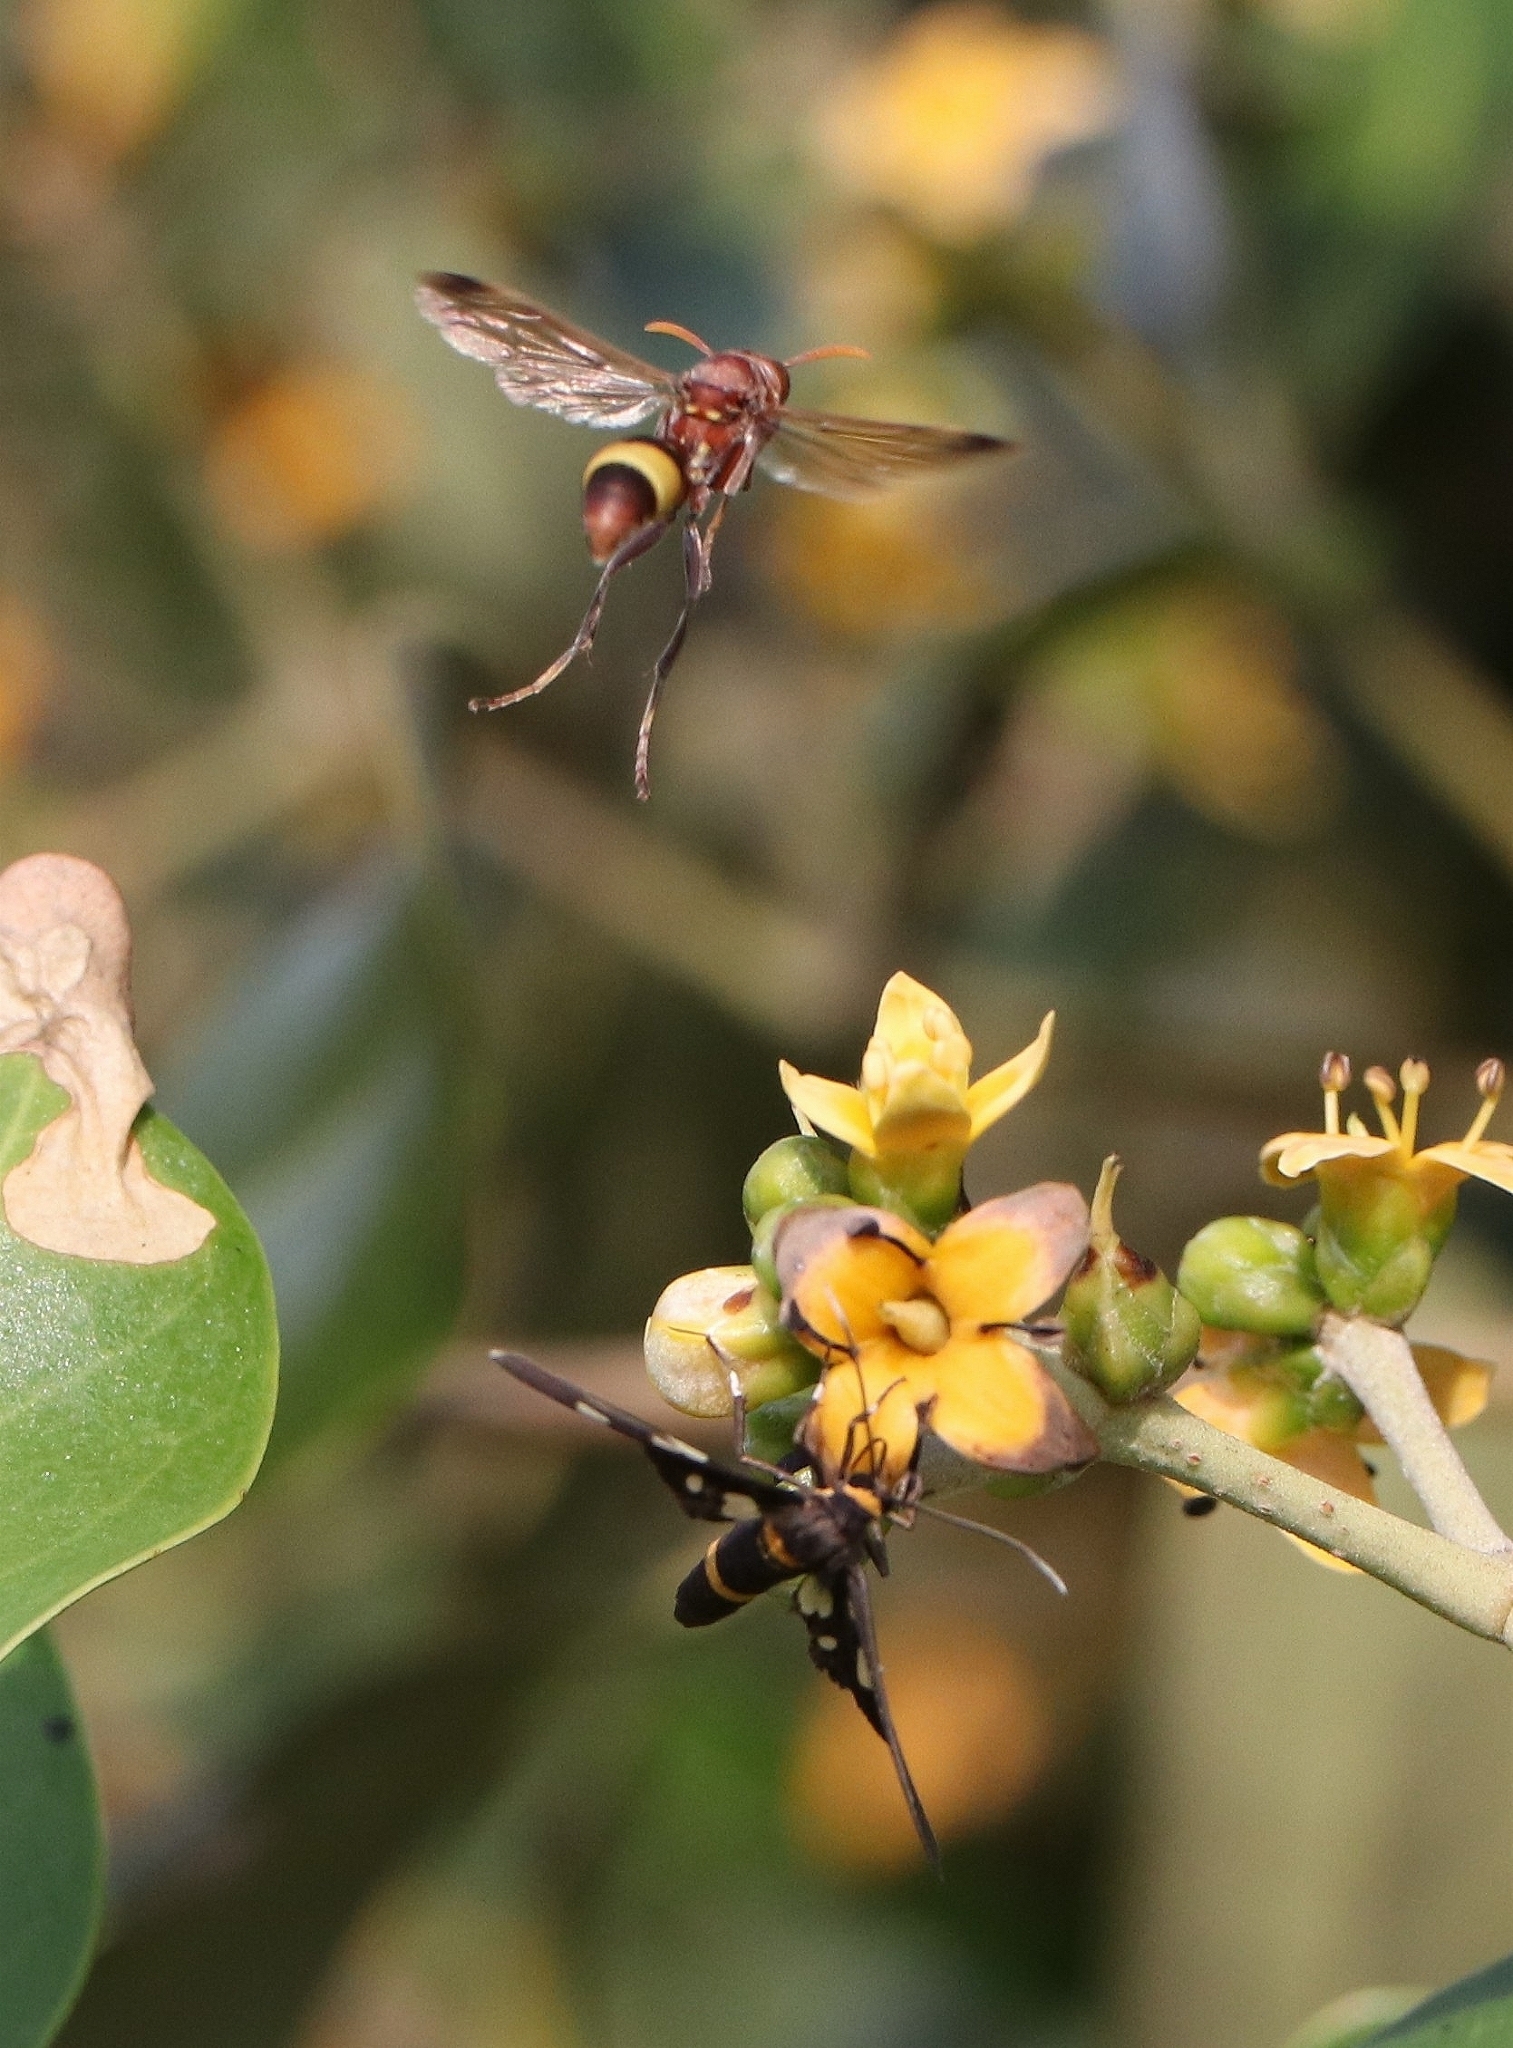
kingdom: Animalia
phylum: Arthropoda
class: Insecta
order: Hymenoptera
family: Vespidae
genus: Ropalidia
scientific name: Ropalidia
